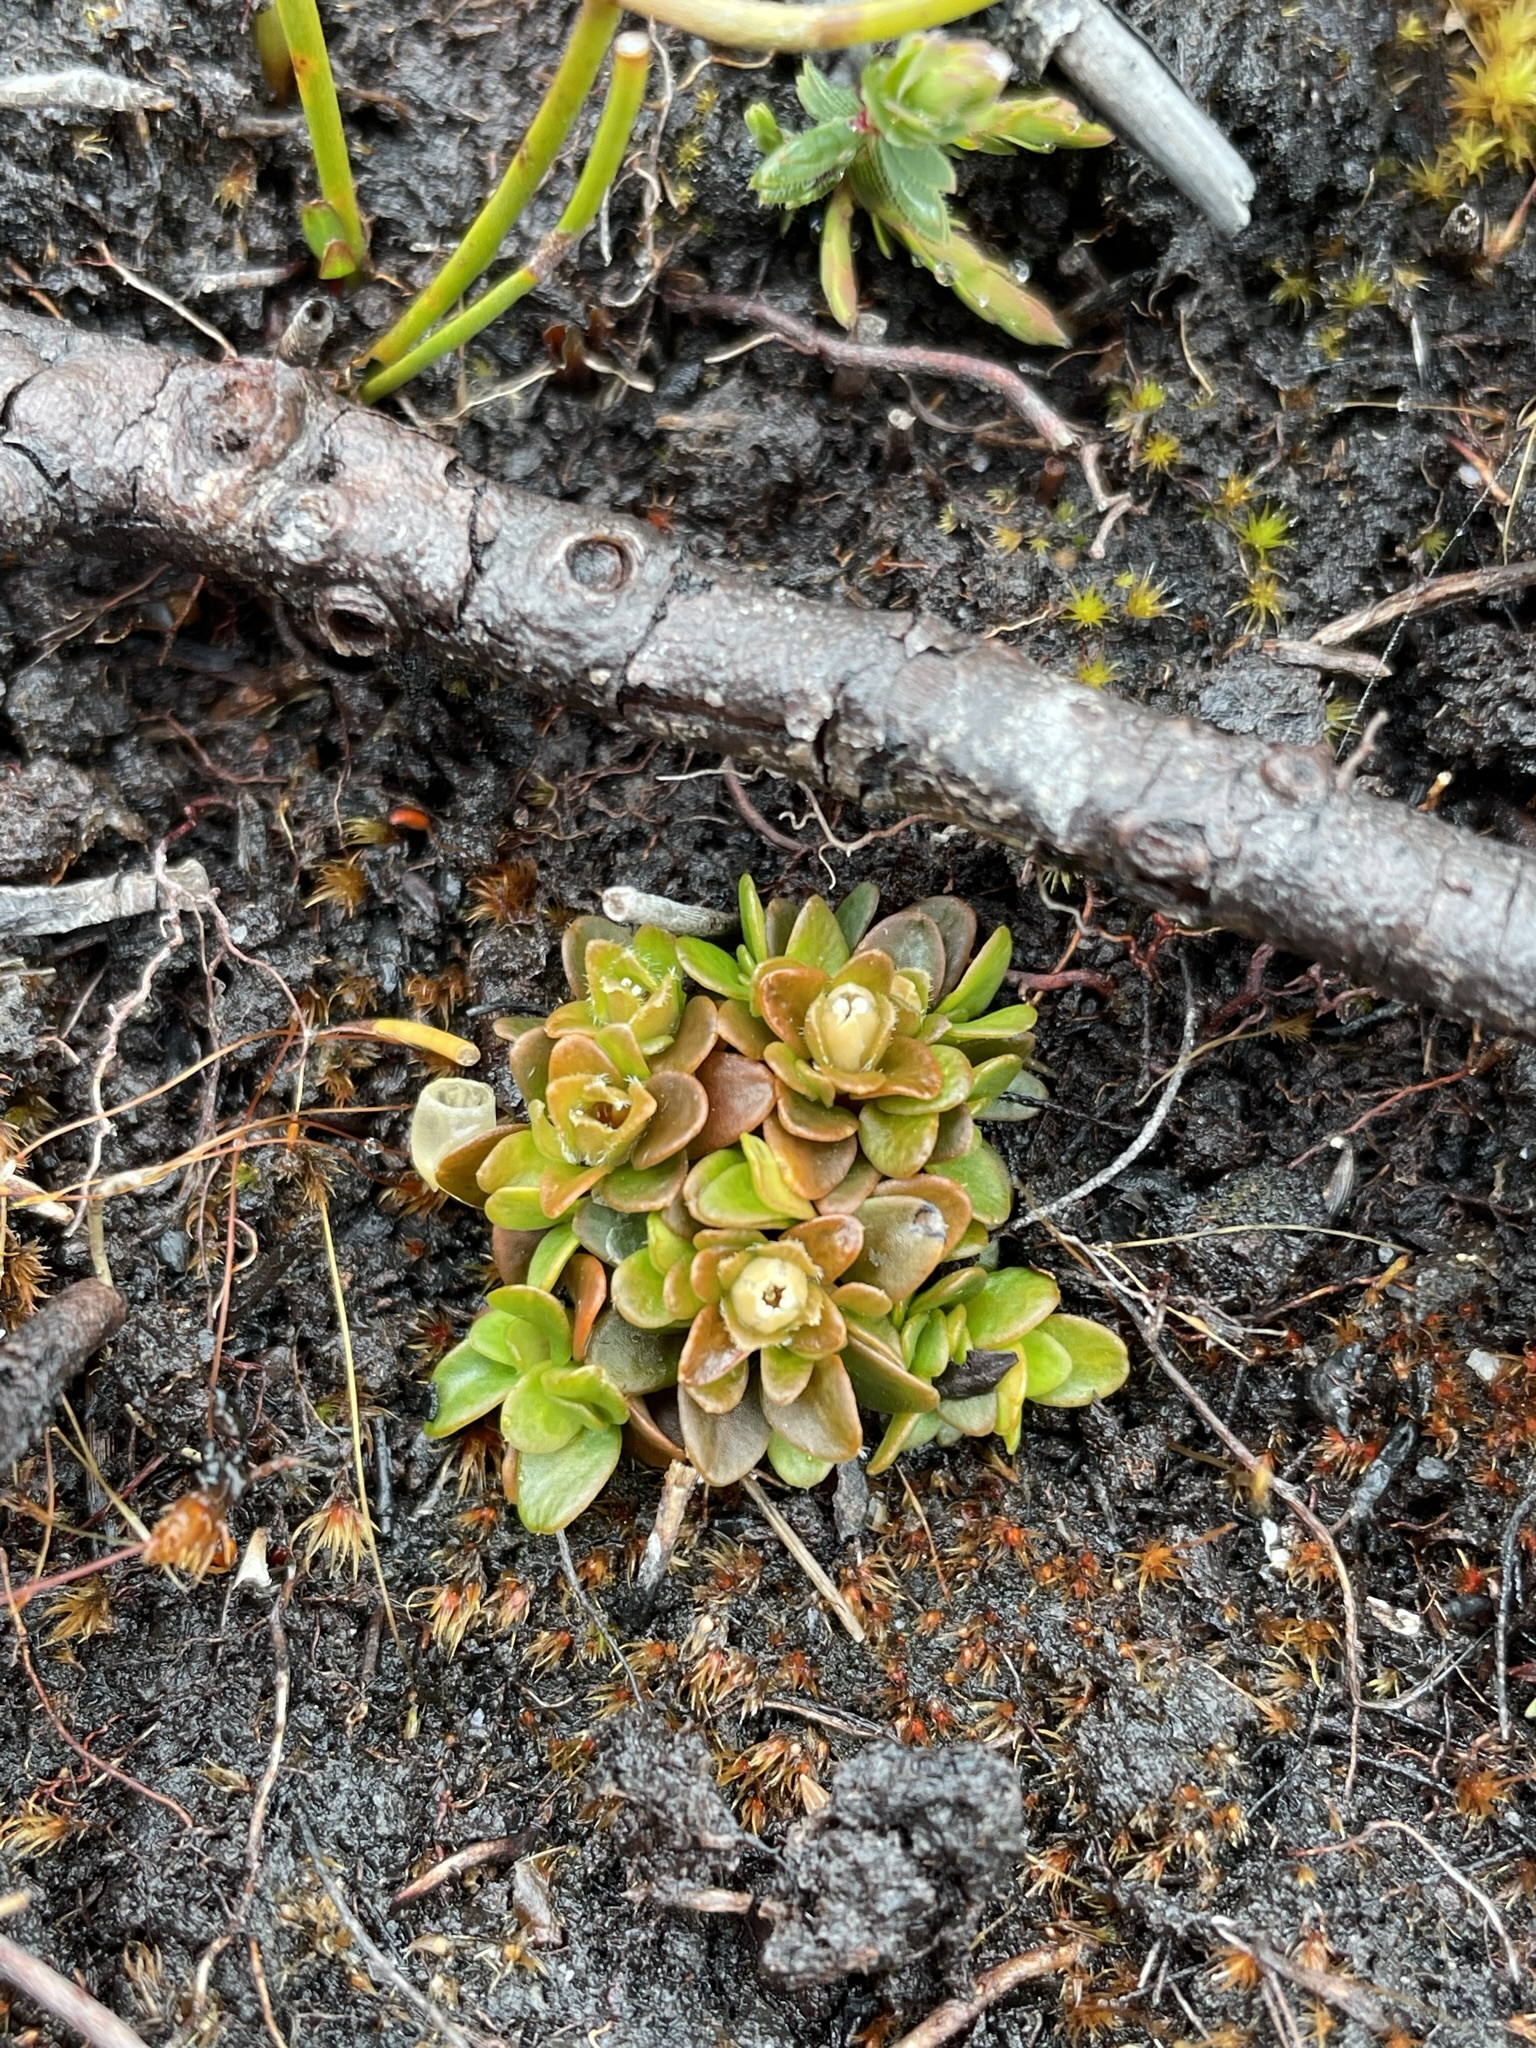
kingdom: Plantae
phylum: Tracheophyta
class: Magnoliopsida
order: Gentianales
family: Loganiaceae
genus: Schizacme
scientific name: Schizacme montana
